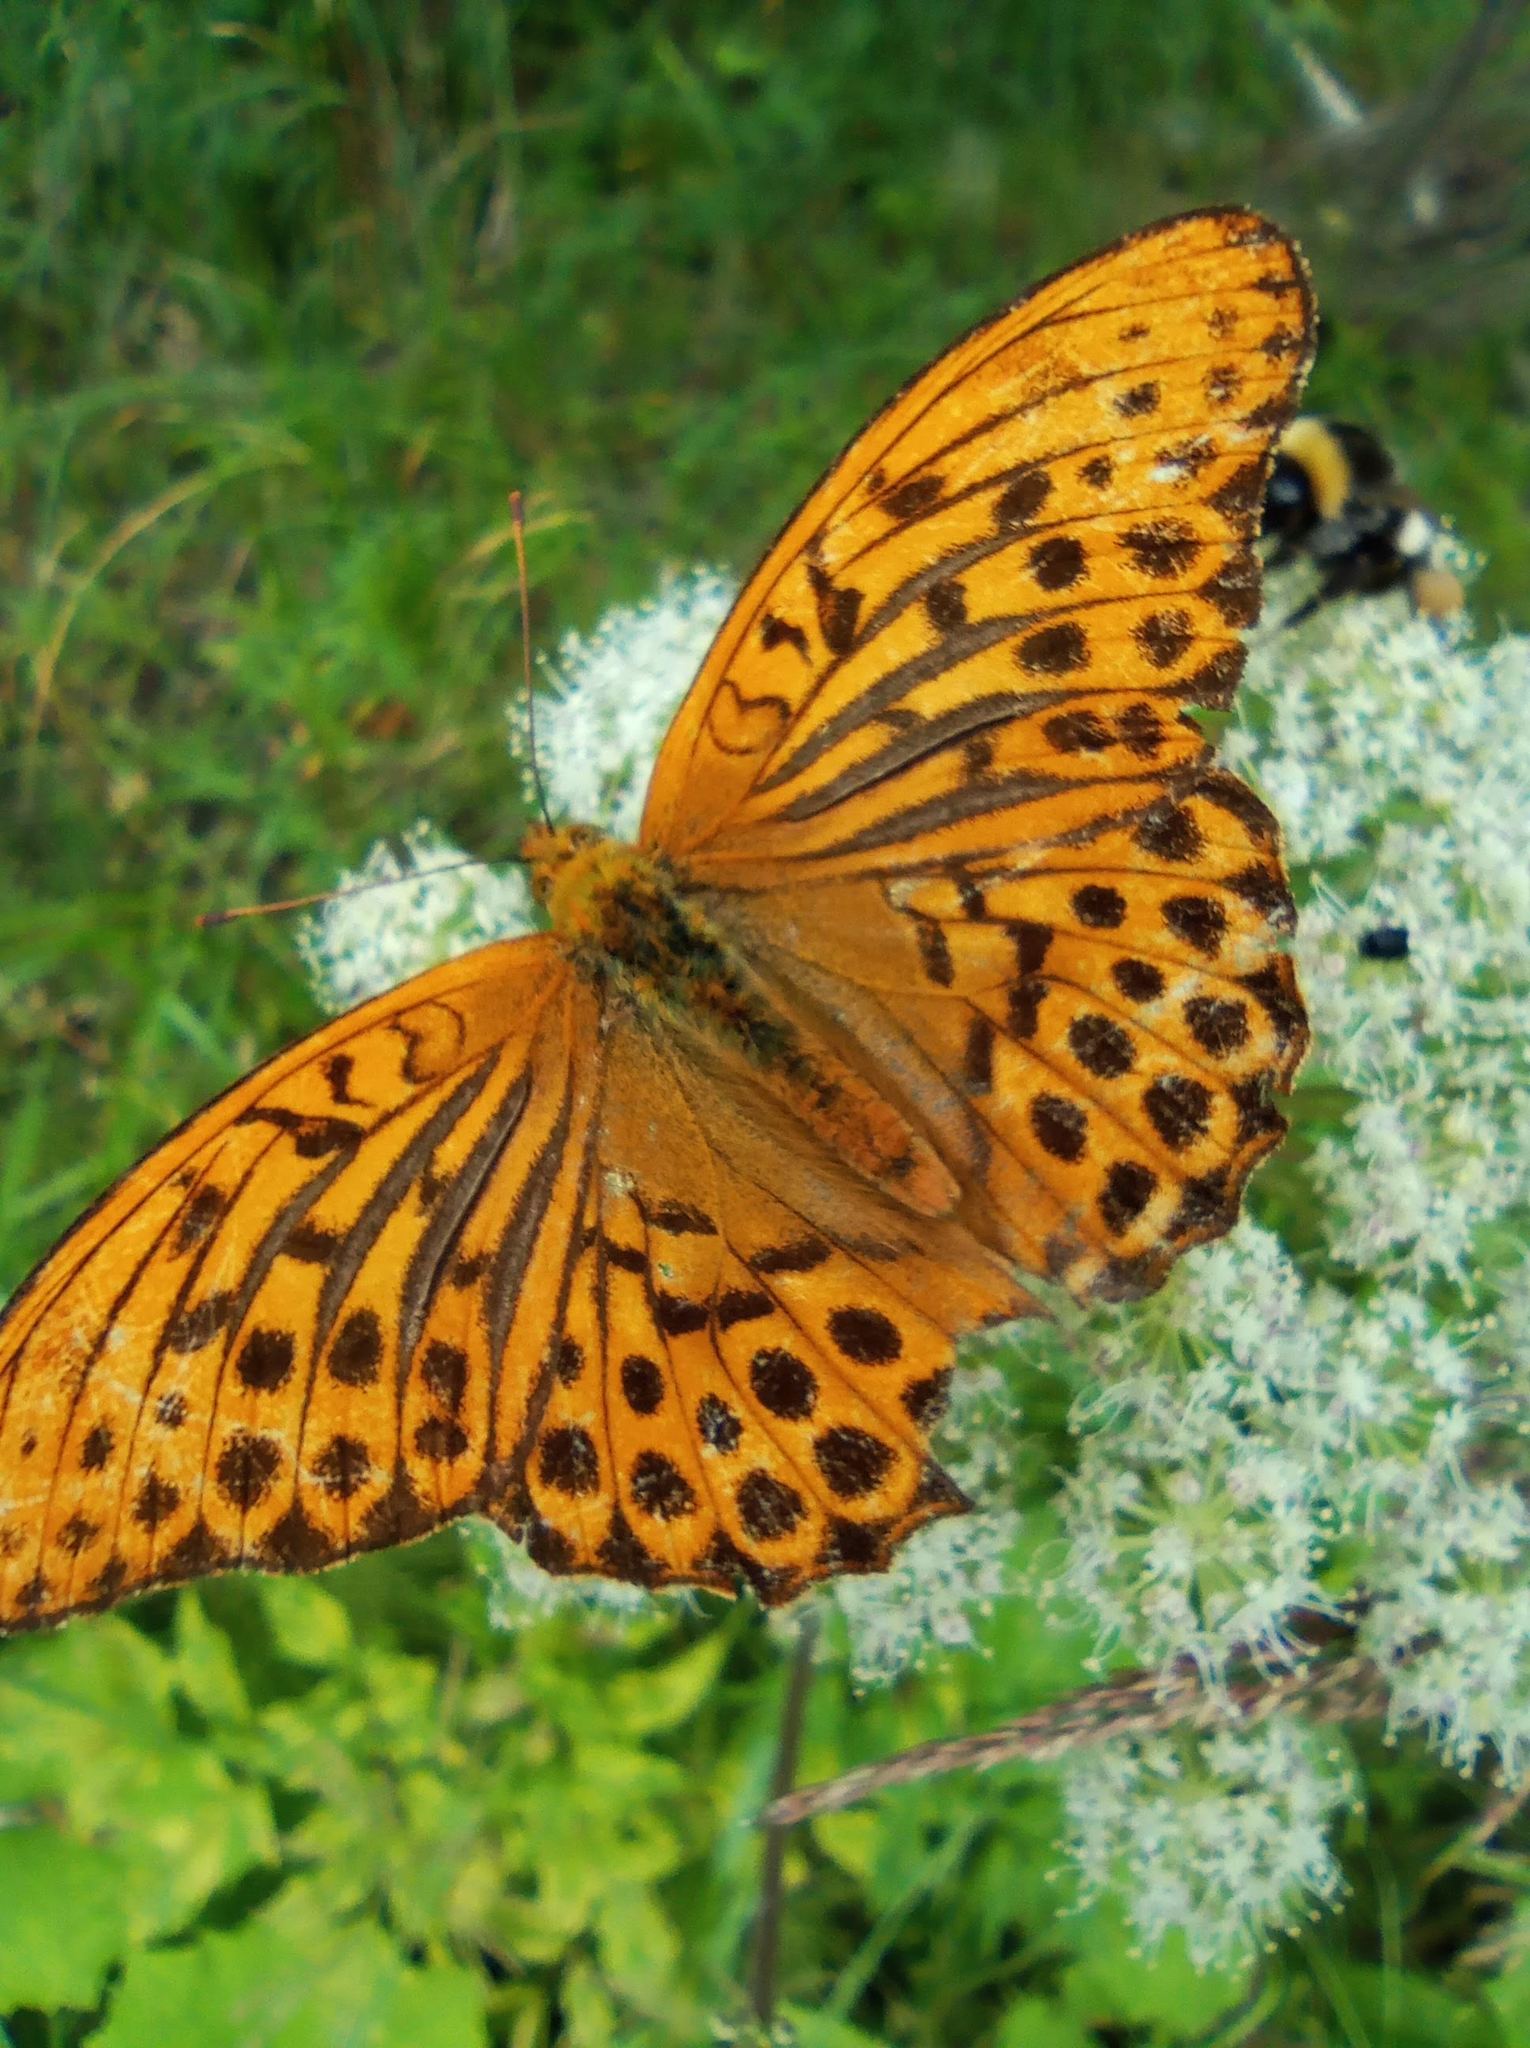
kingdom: Animalia
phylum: Arthropoda
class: Insecta
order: Lepidoptera
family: Nymphalidae
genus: Argynnis
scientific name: Argynnis paphia
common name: Silver-washed fritillary
